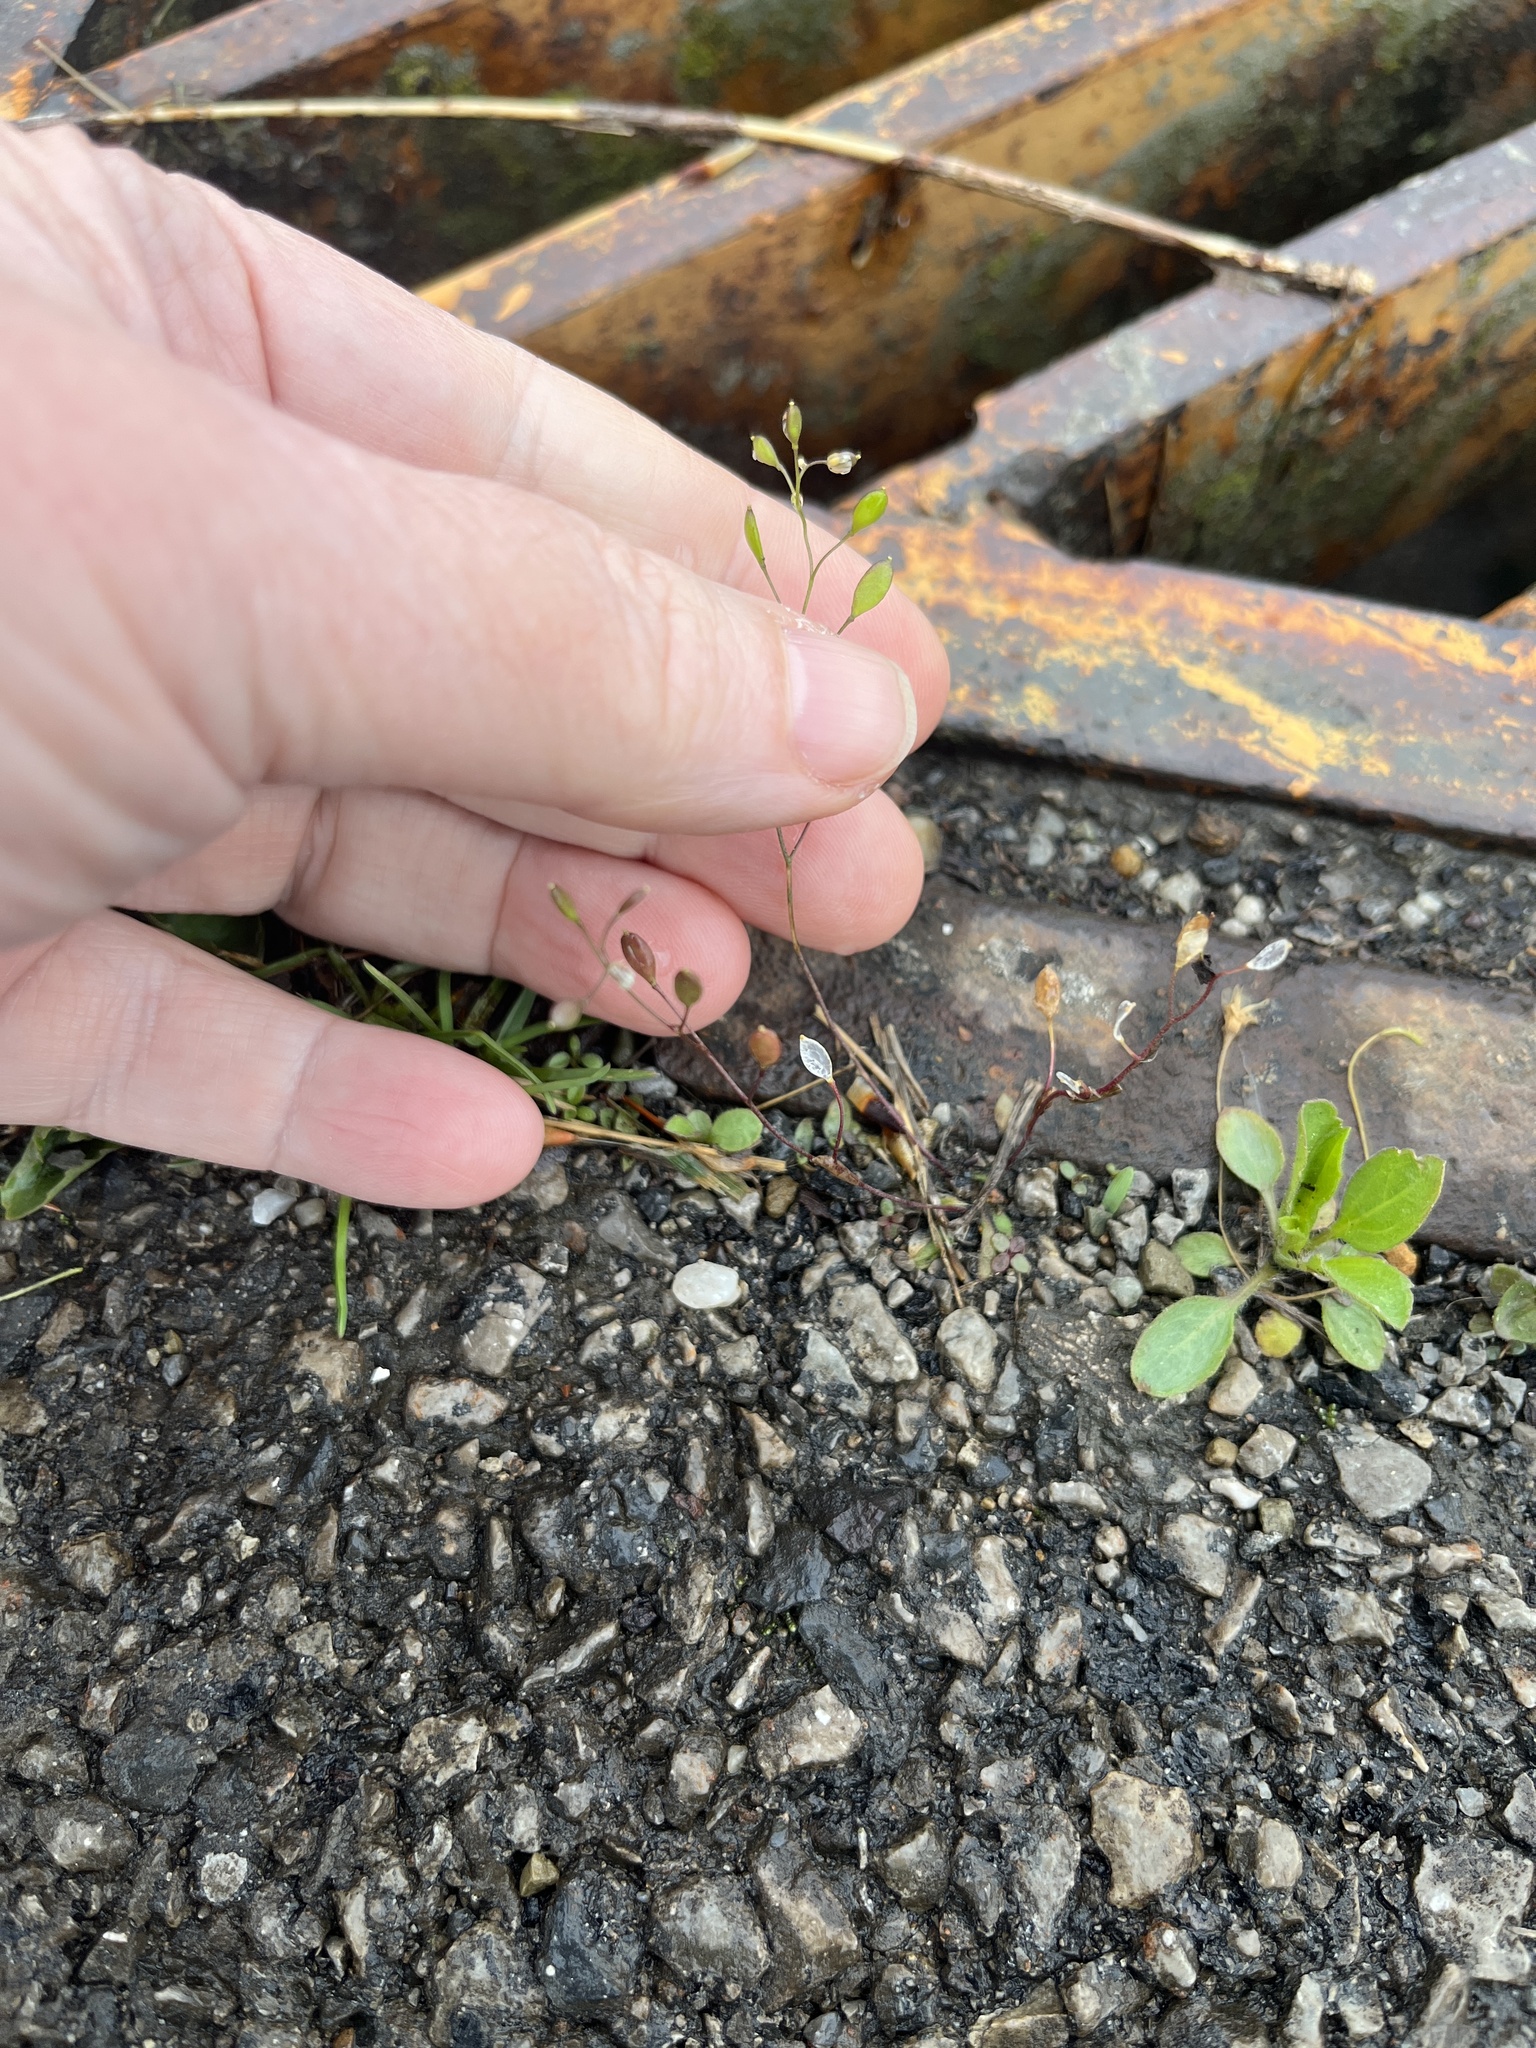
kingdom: Plantae
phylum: Tracheophyta
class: Magnoliopsida
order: Brassicales
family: Brassicaceae
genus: Draba
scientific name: Draba verna
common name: Spring draba
